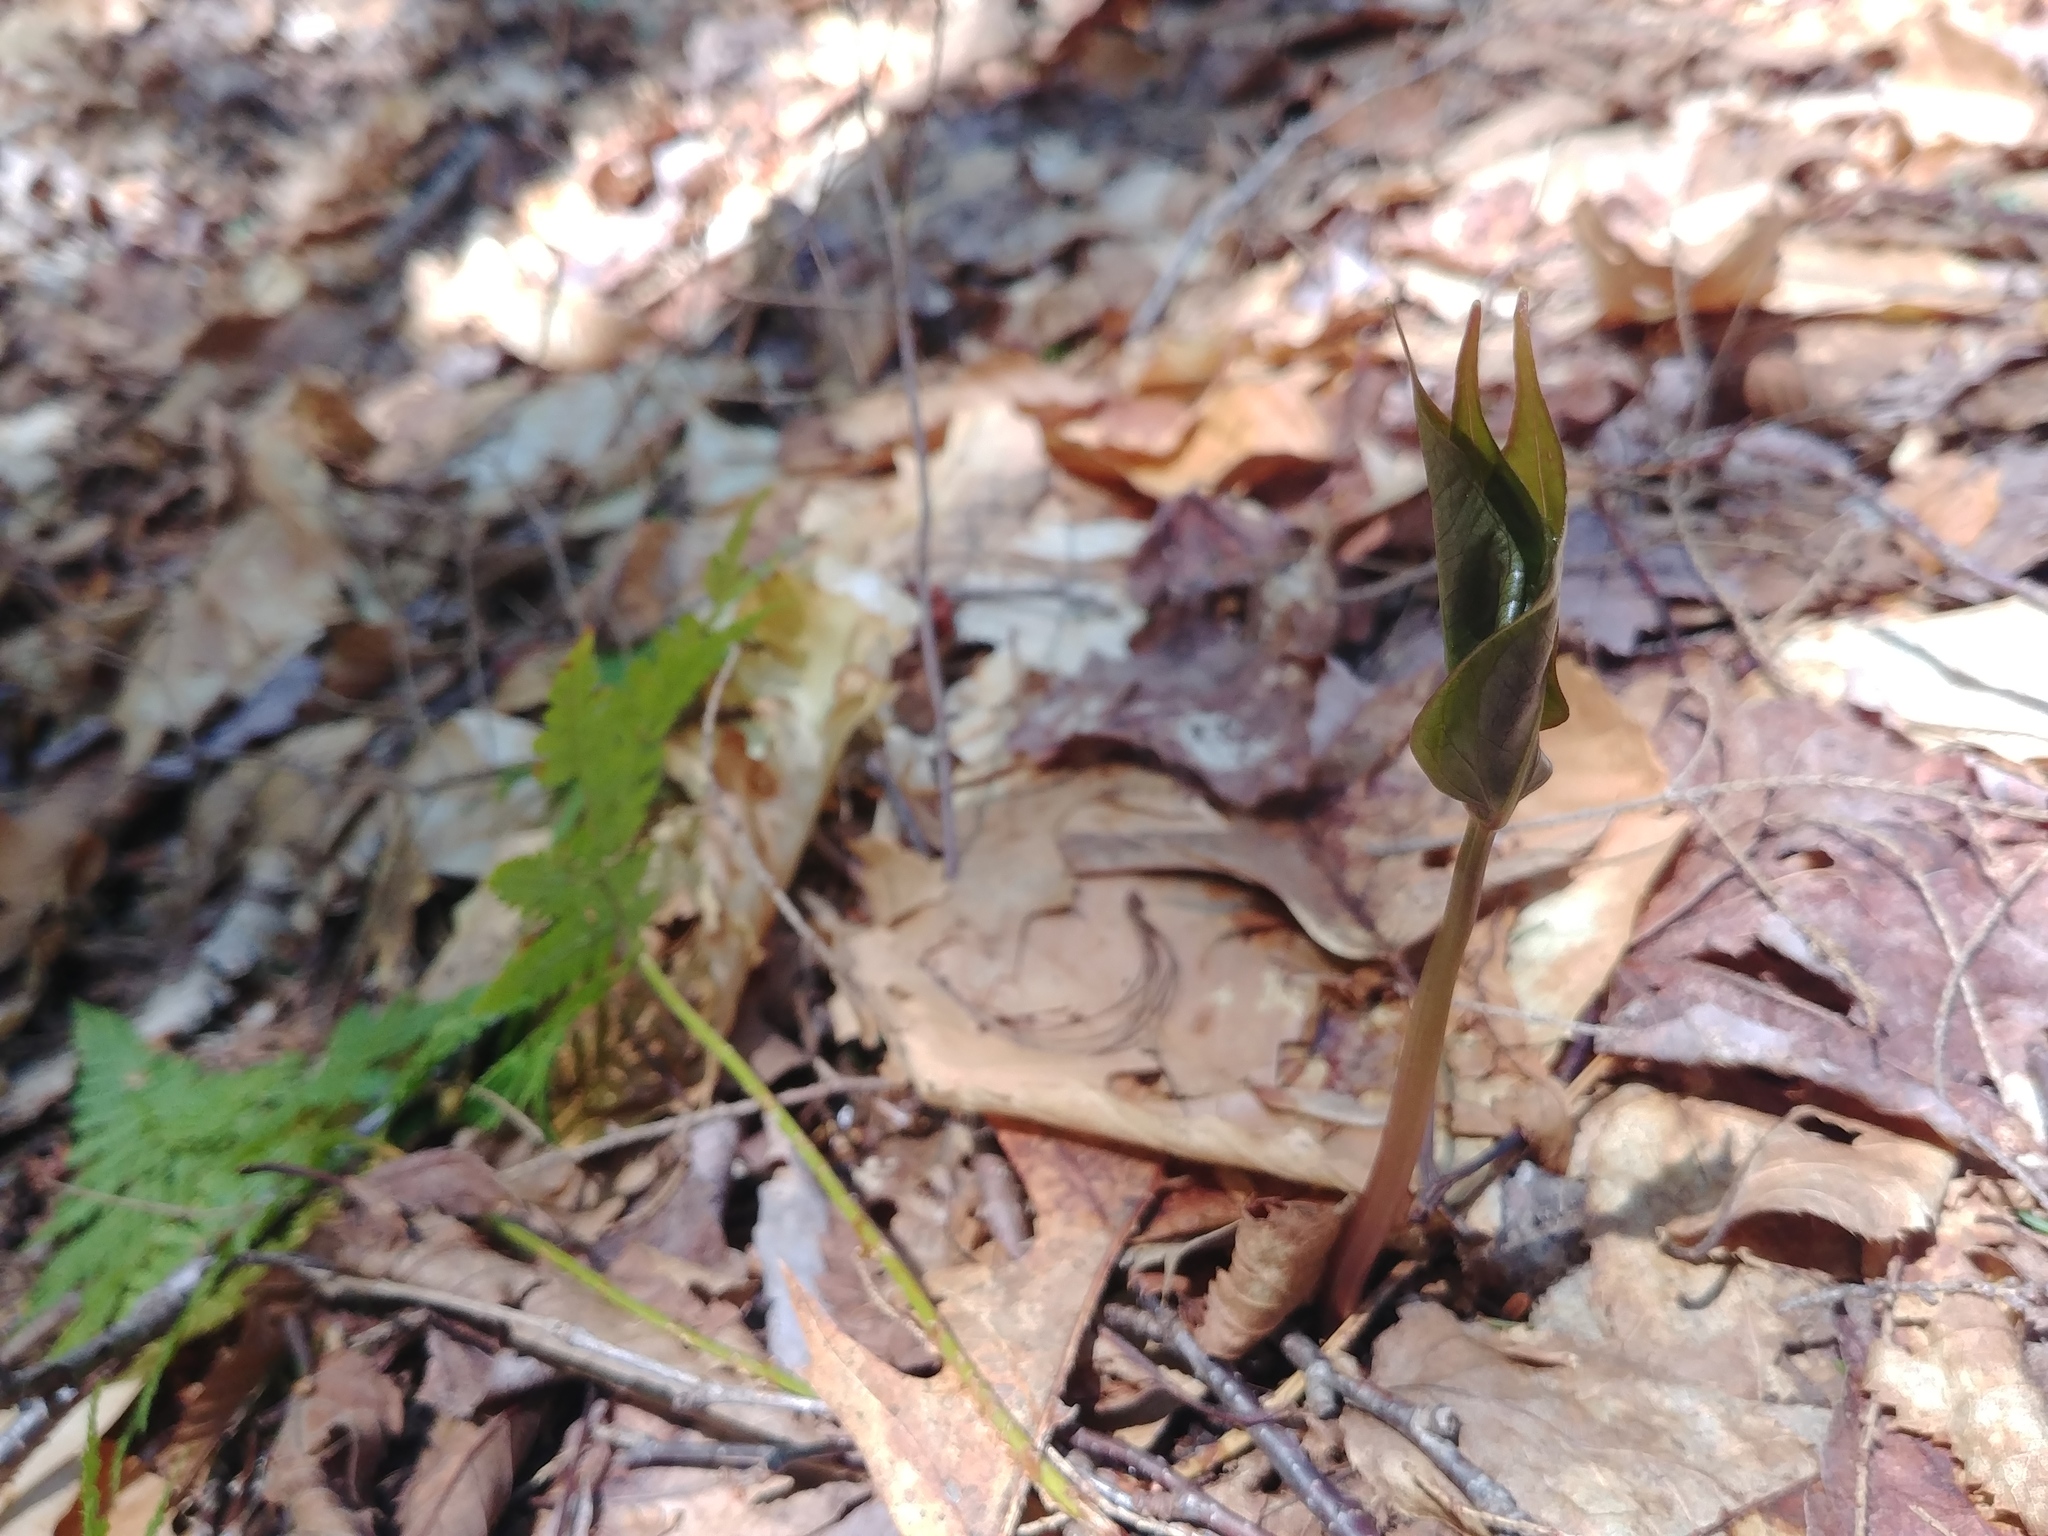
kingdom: Plantae
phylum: Tracheophyta
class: Liliopsida
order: Liliales
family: Melanthiaceae
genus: Trillium
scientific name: Trillium undulatum
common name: Paint trillium
